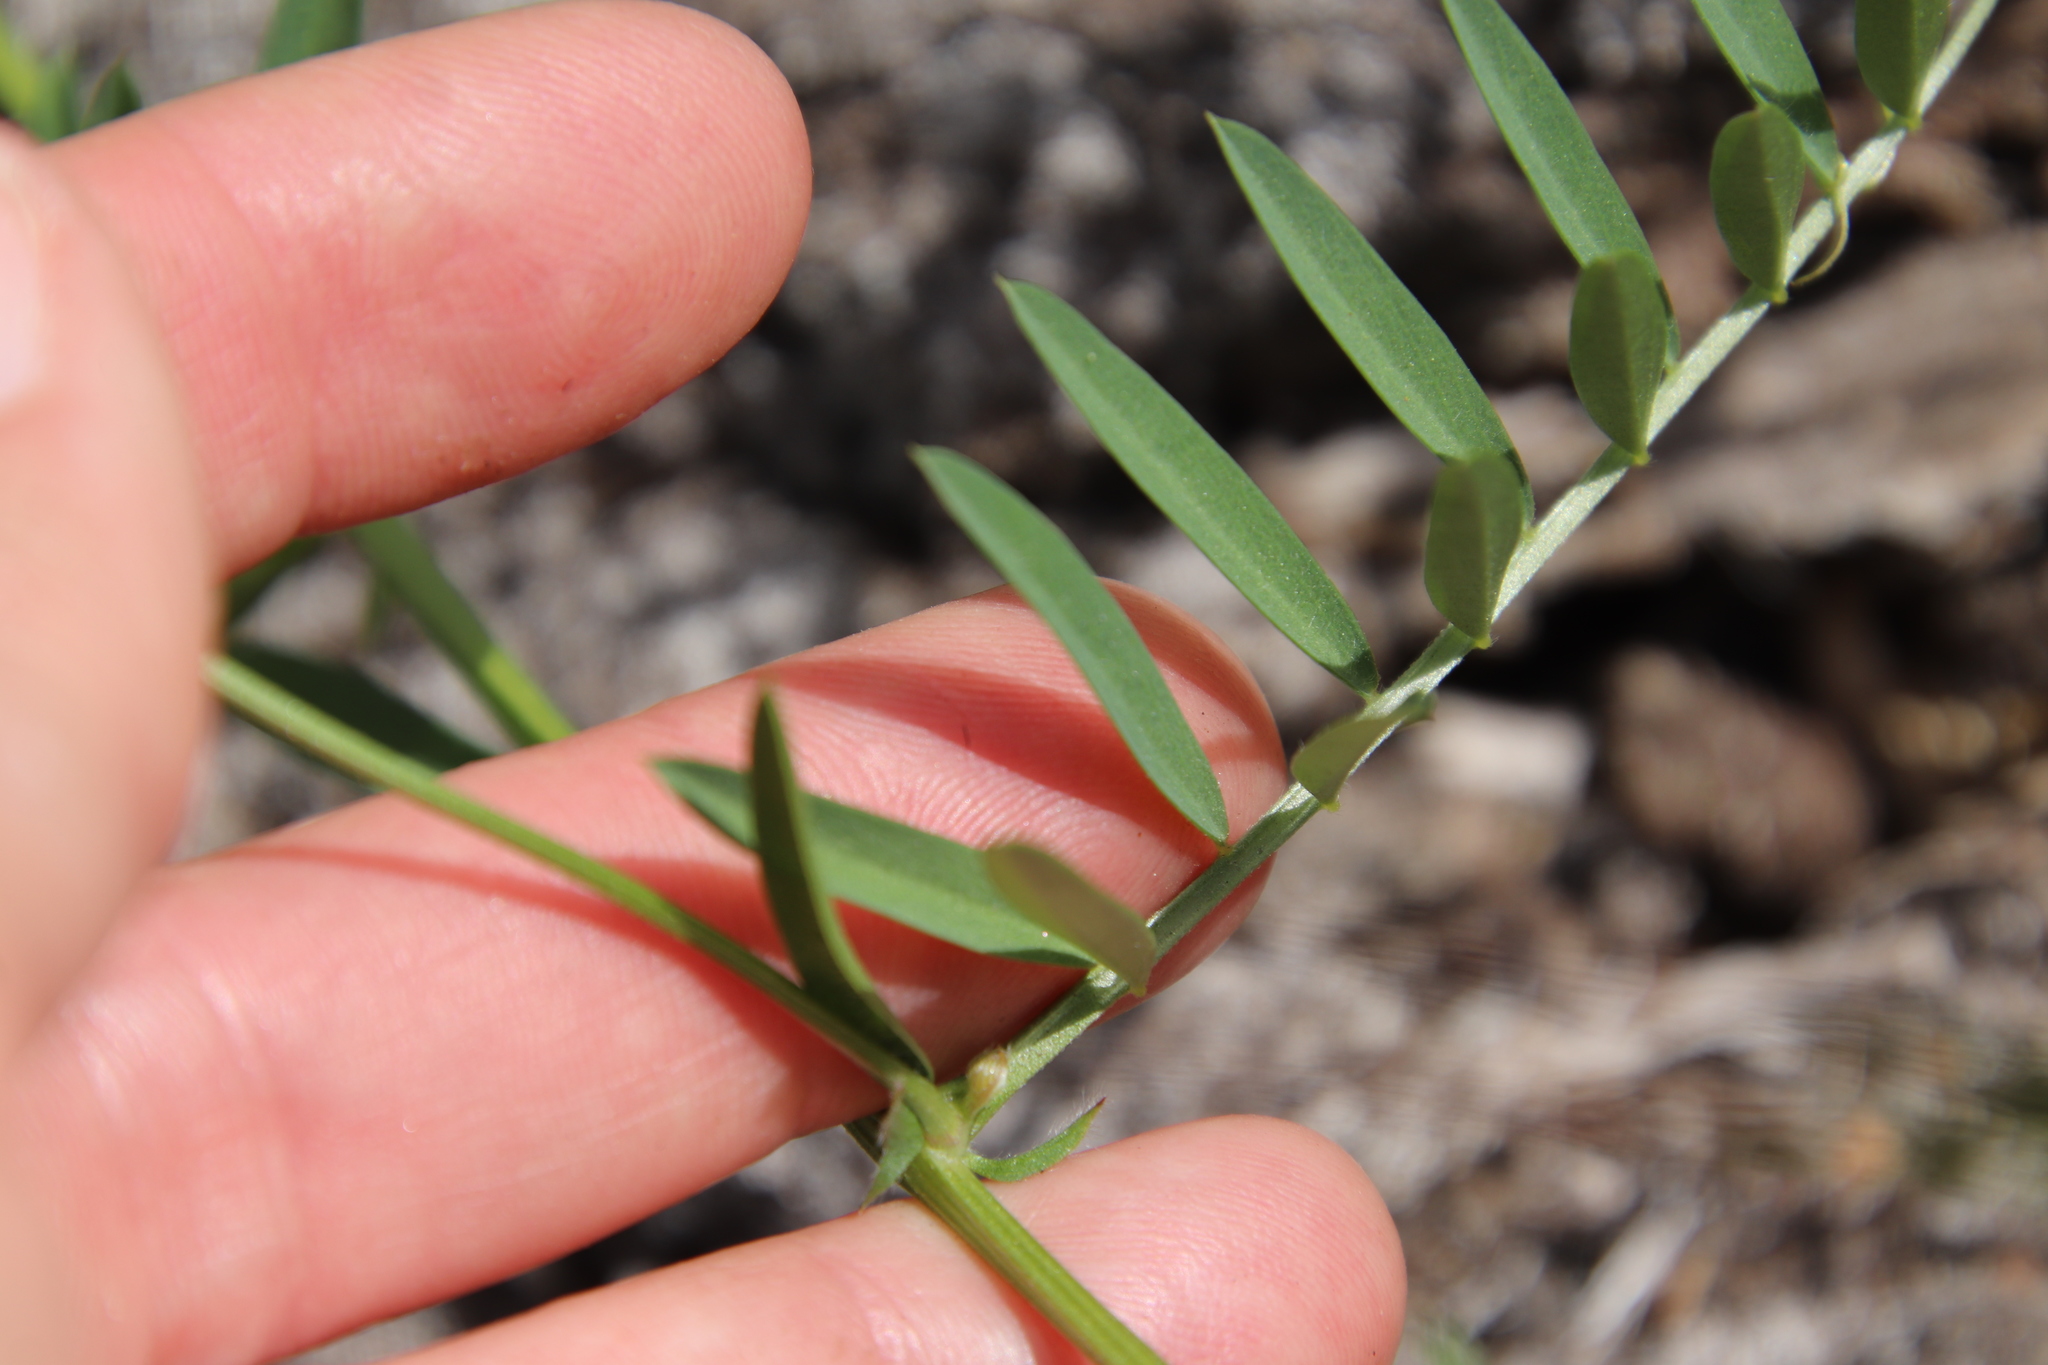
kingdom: Plantae
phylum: Tracheophyta
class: Magnoliopsida
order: Fabales
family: Fabaceae
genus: Vicia
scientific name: Vicia villosa
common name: Fodder vetch
